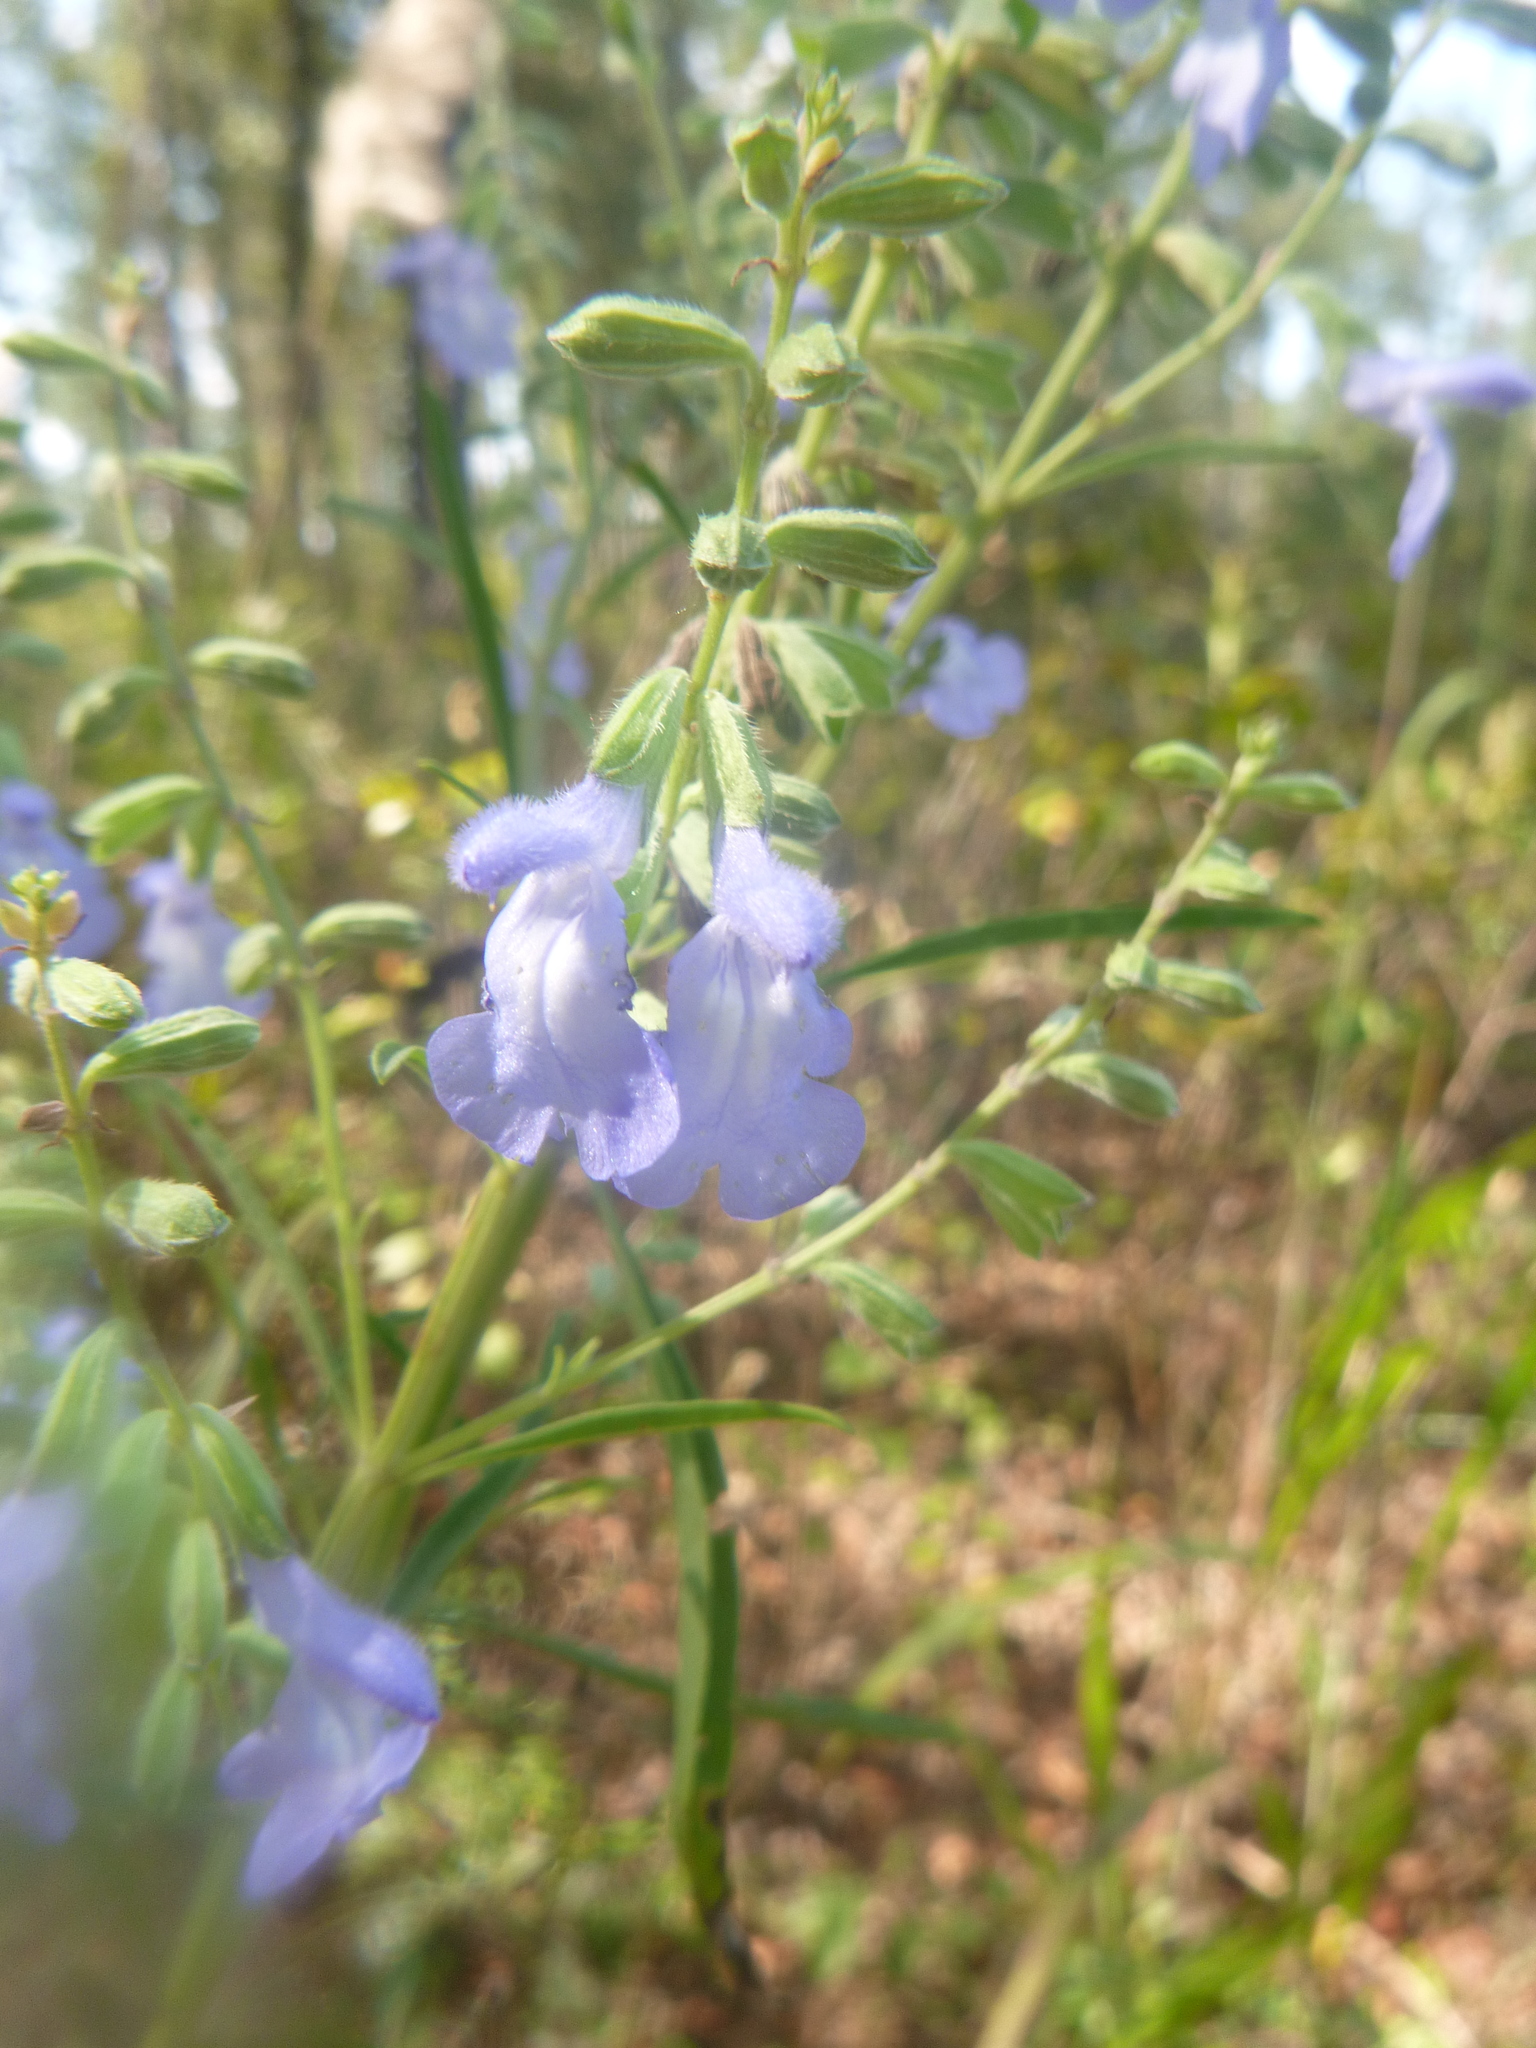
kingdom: Plantae
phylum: Tracheophyta
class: Magnoliopsida
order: Lamiales
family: Lamiaceae
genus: Salvia
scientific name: Salvia azurea
